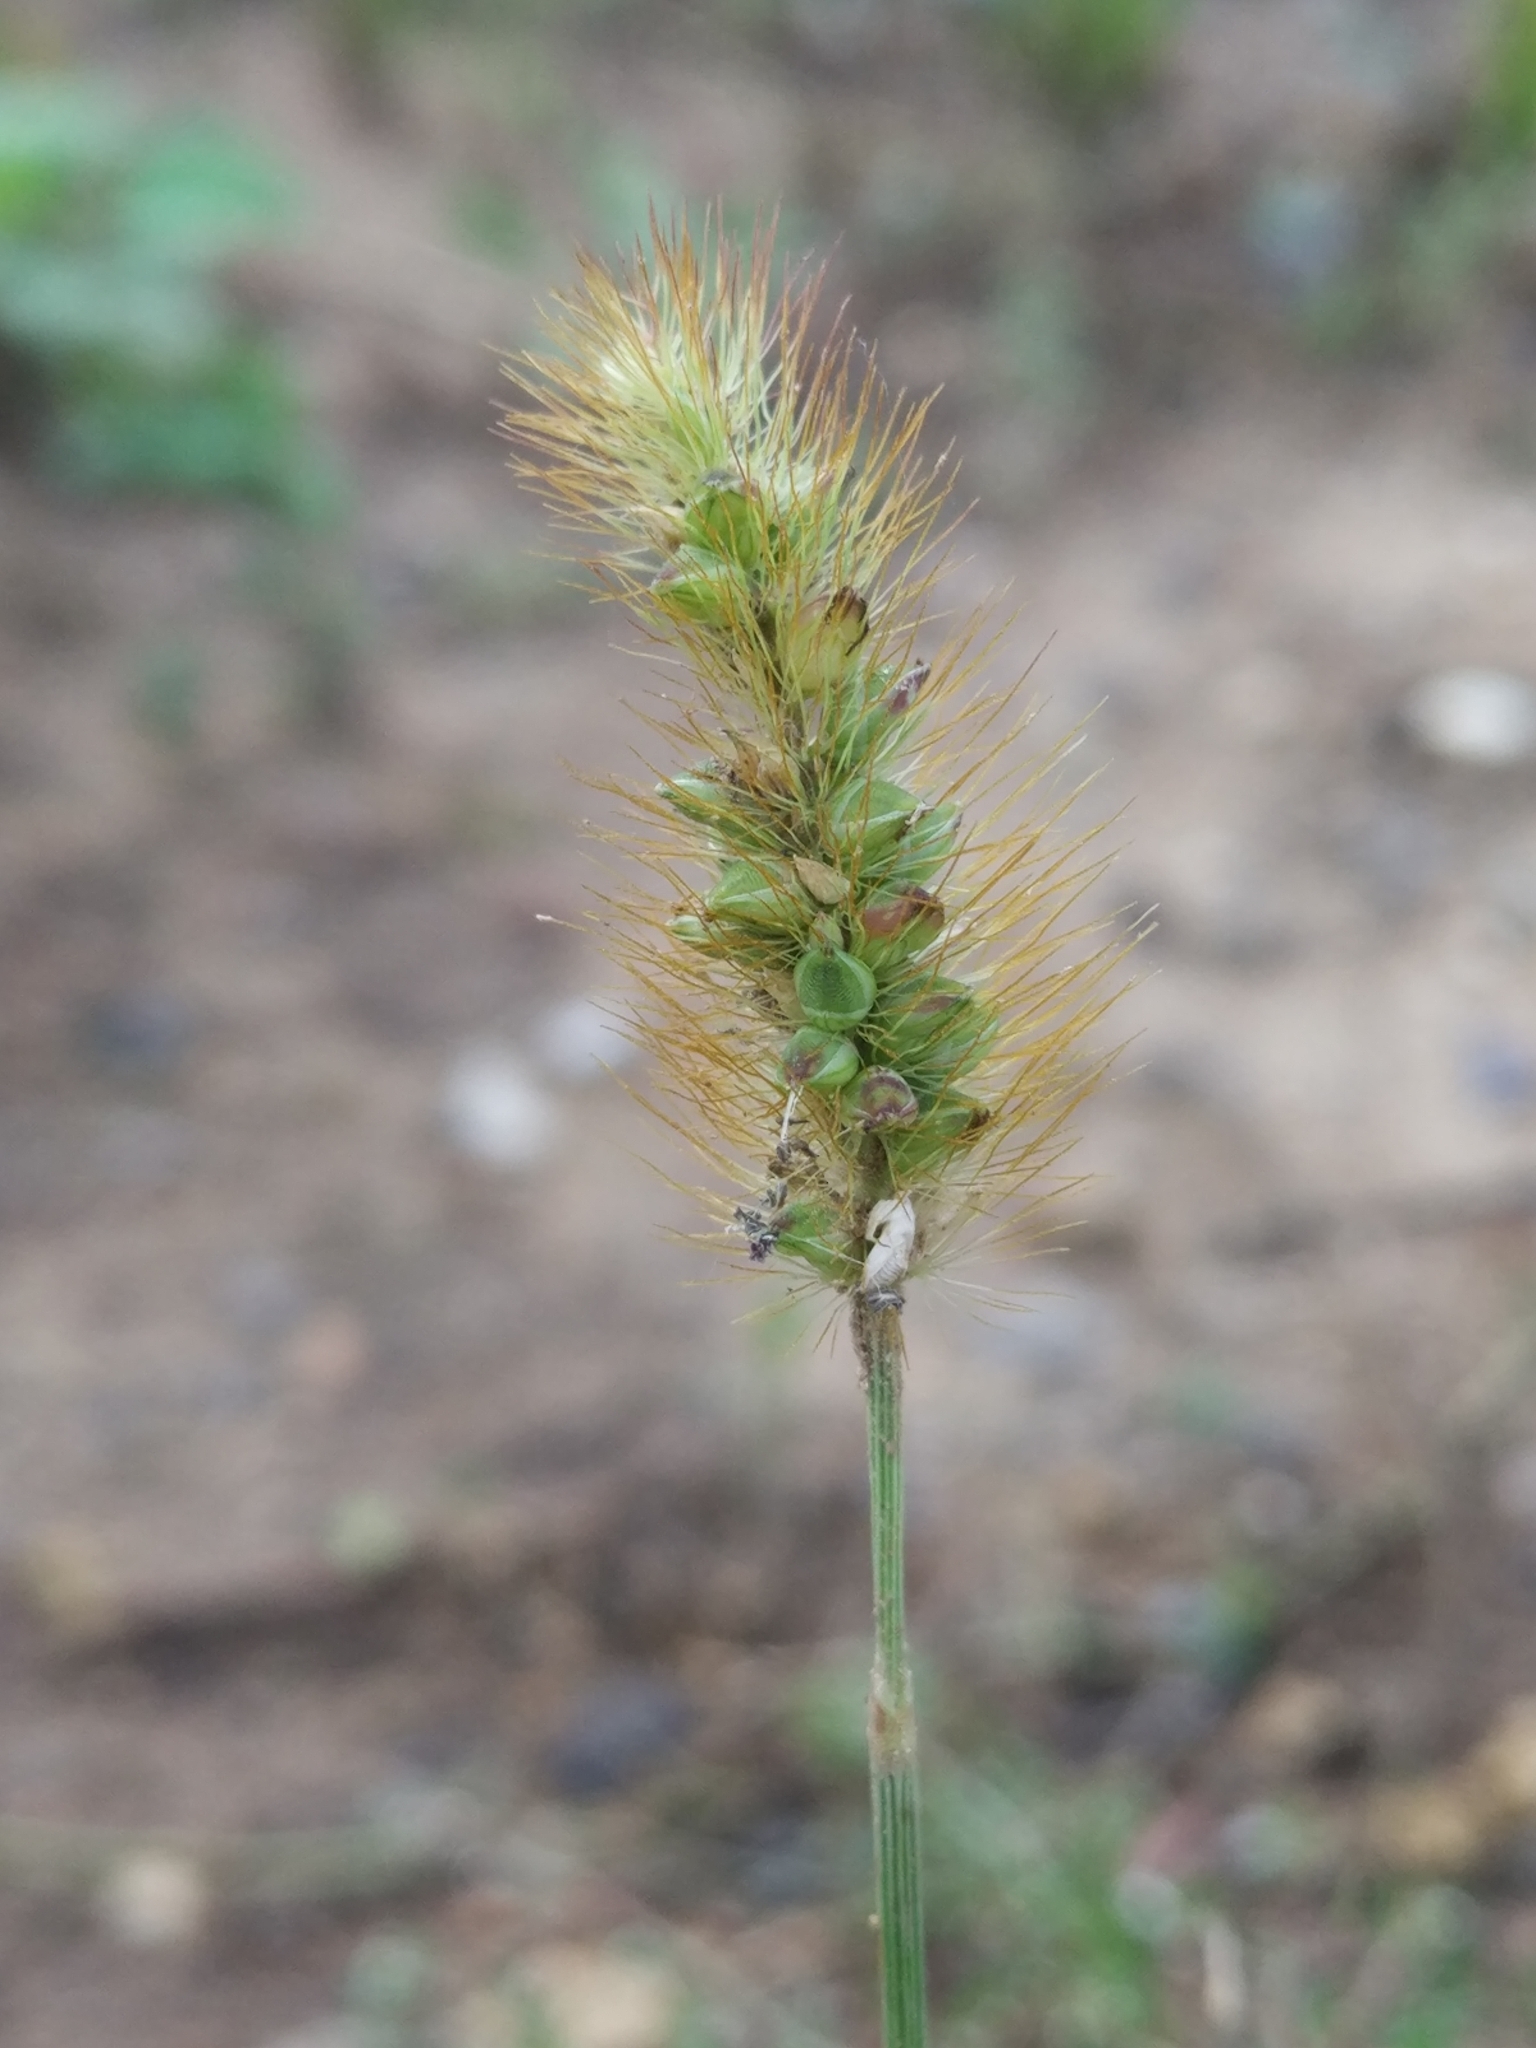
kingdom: Plantae
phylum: Tracheophyta
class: Liliopsida
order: Poales
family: Poaceae
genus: Setaria
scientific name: Setaria pumila
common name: Yellow bristle-grass
